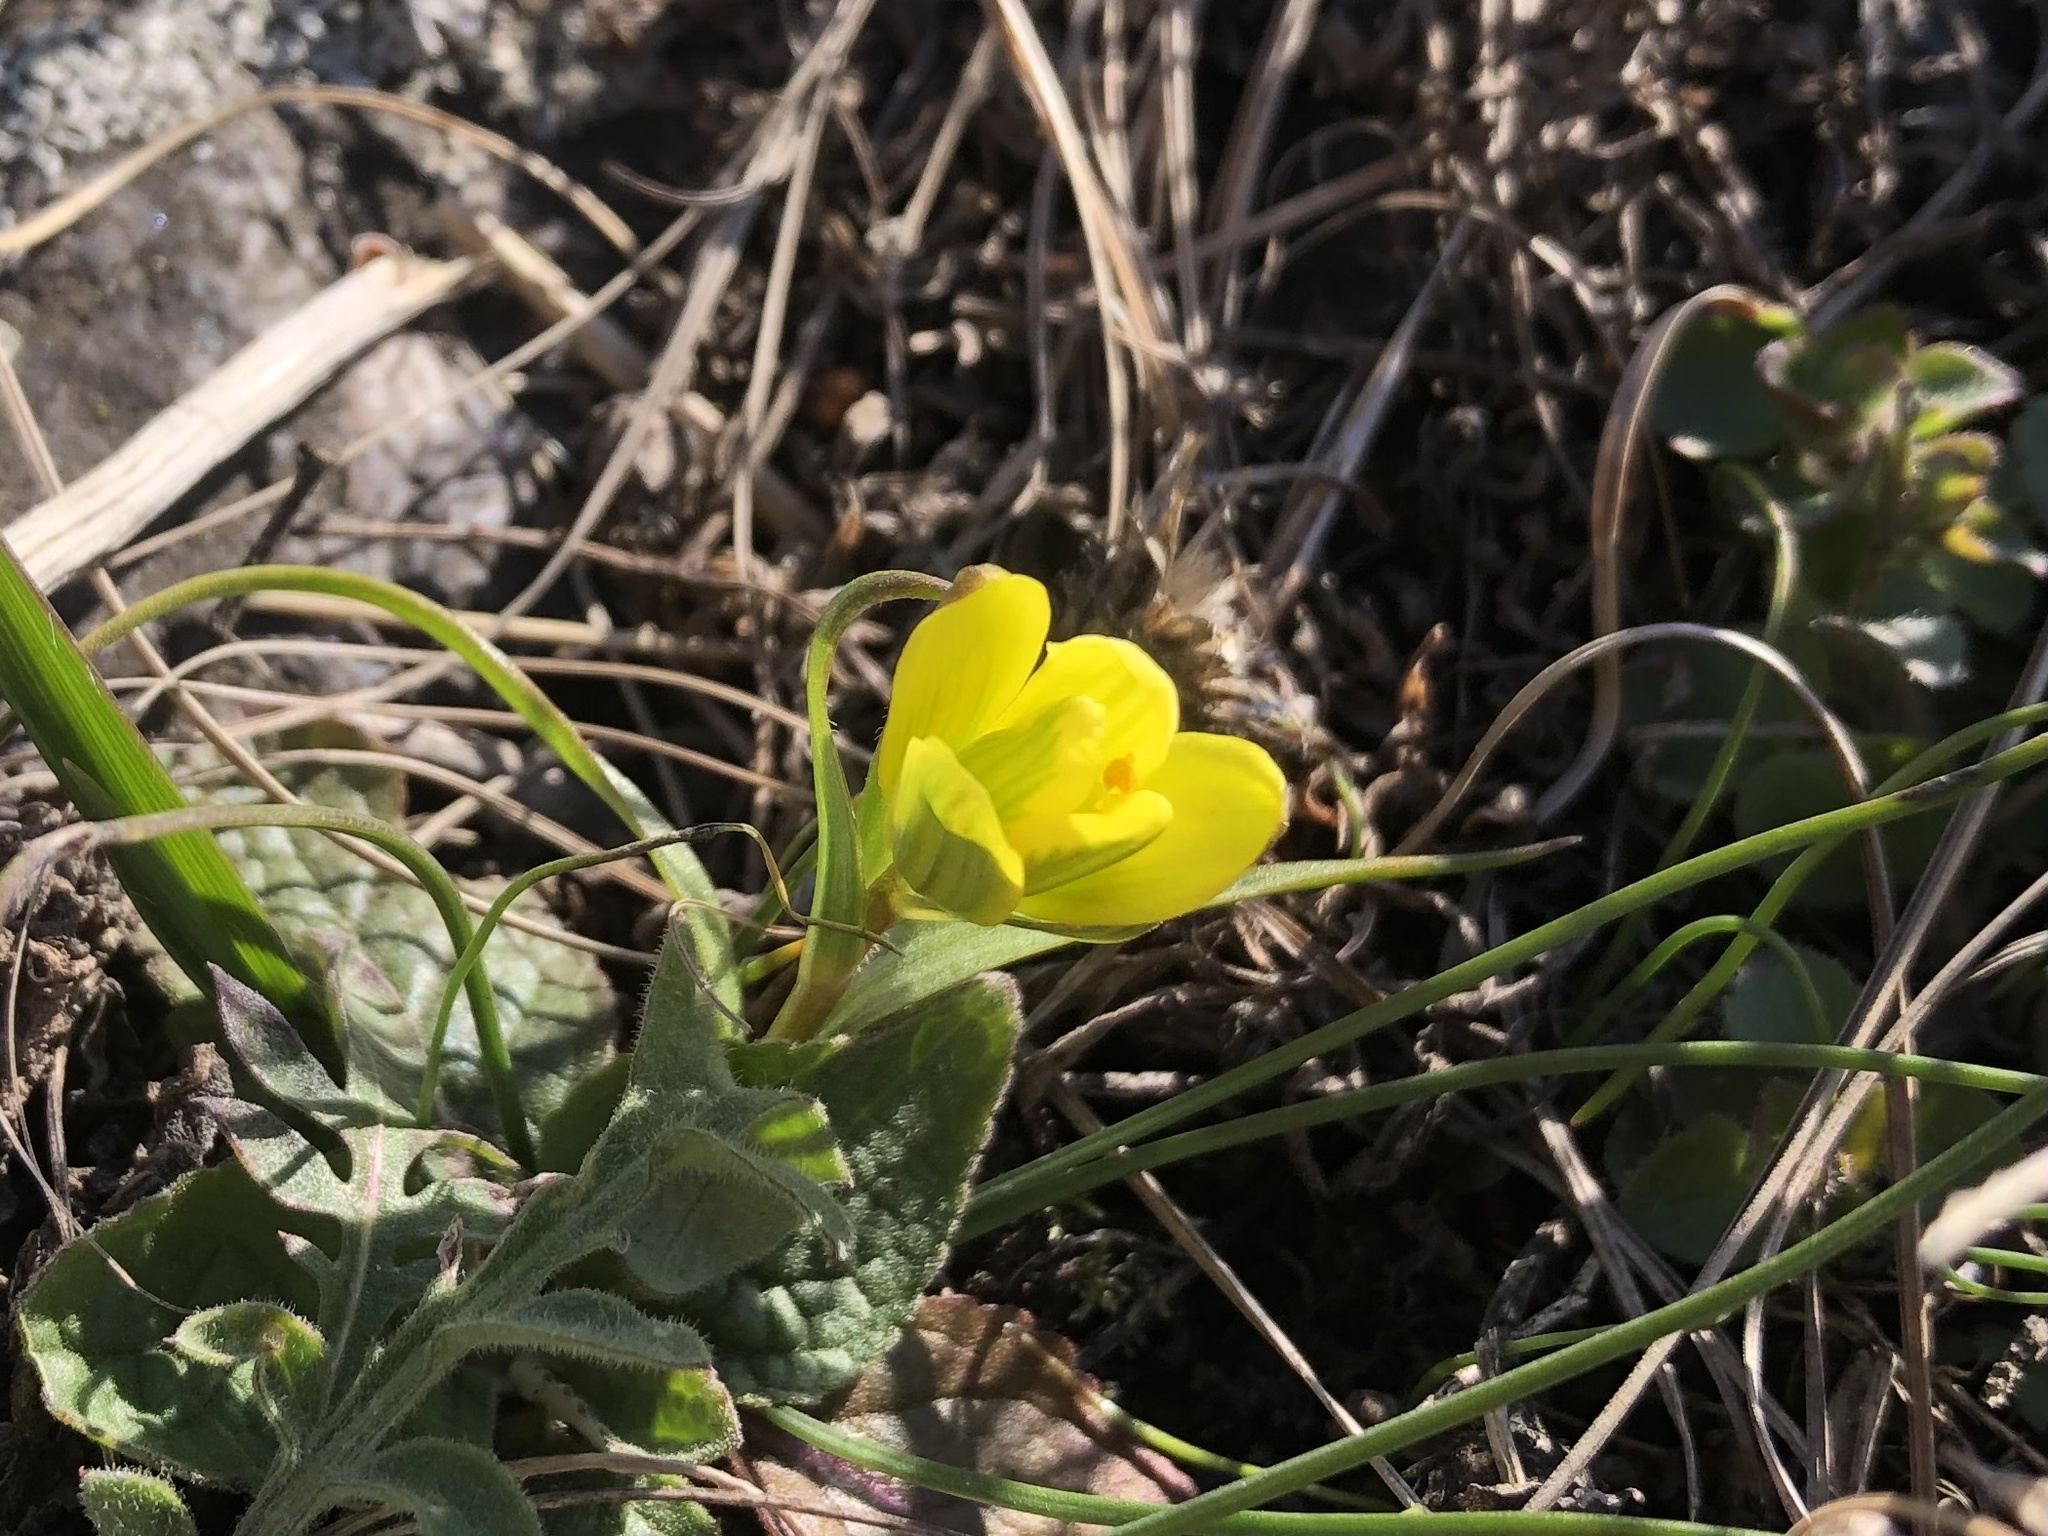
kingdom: Plantae
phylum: Tracheophyta
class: Liliopsida
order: Liliales
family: Liliaceae
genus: Gagea
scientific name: Gagea bohemica
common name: Early star-of-bethlehem
